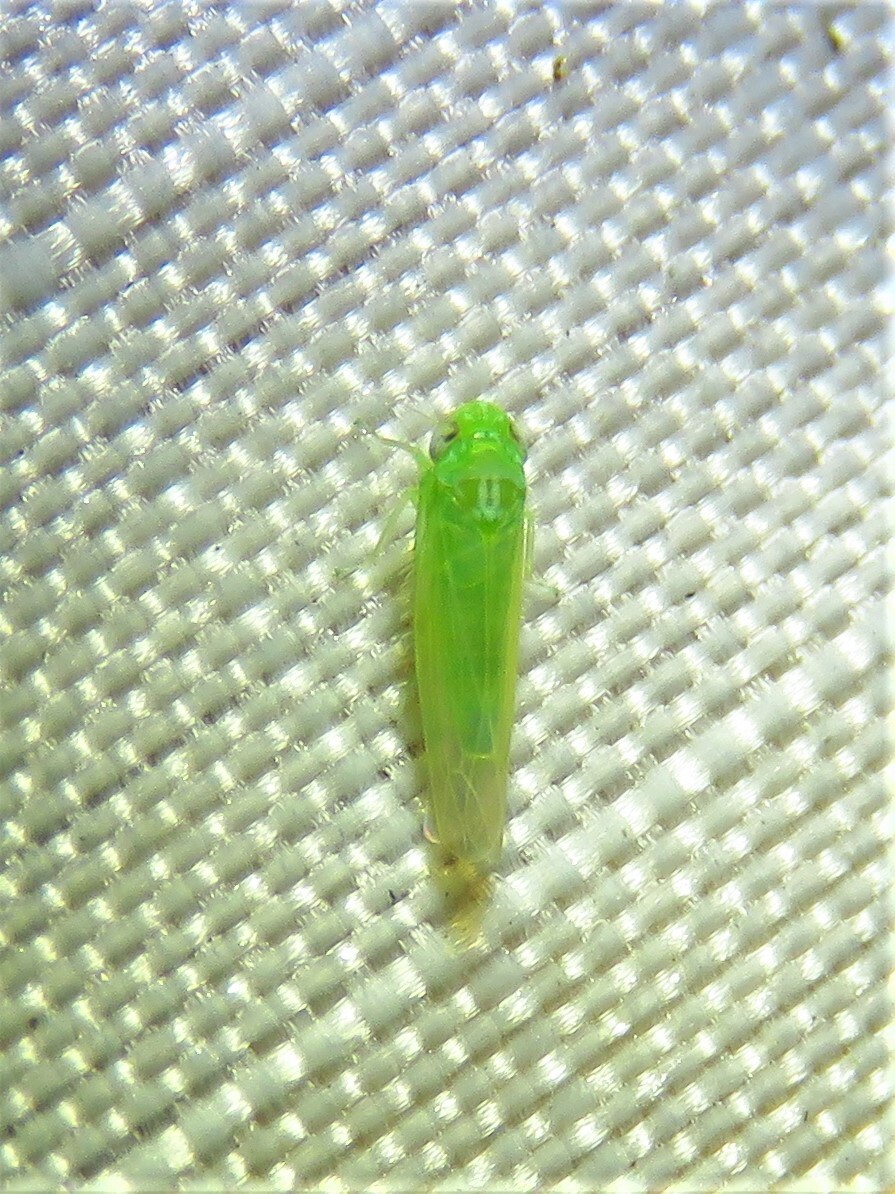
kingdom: Animalia
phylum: Arthropoda
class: Insecta
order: Hemiptera
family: Cicadellidae
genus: Empoasca
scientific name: Empoasca fabae
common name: Potato leafhopper
